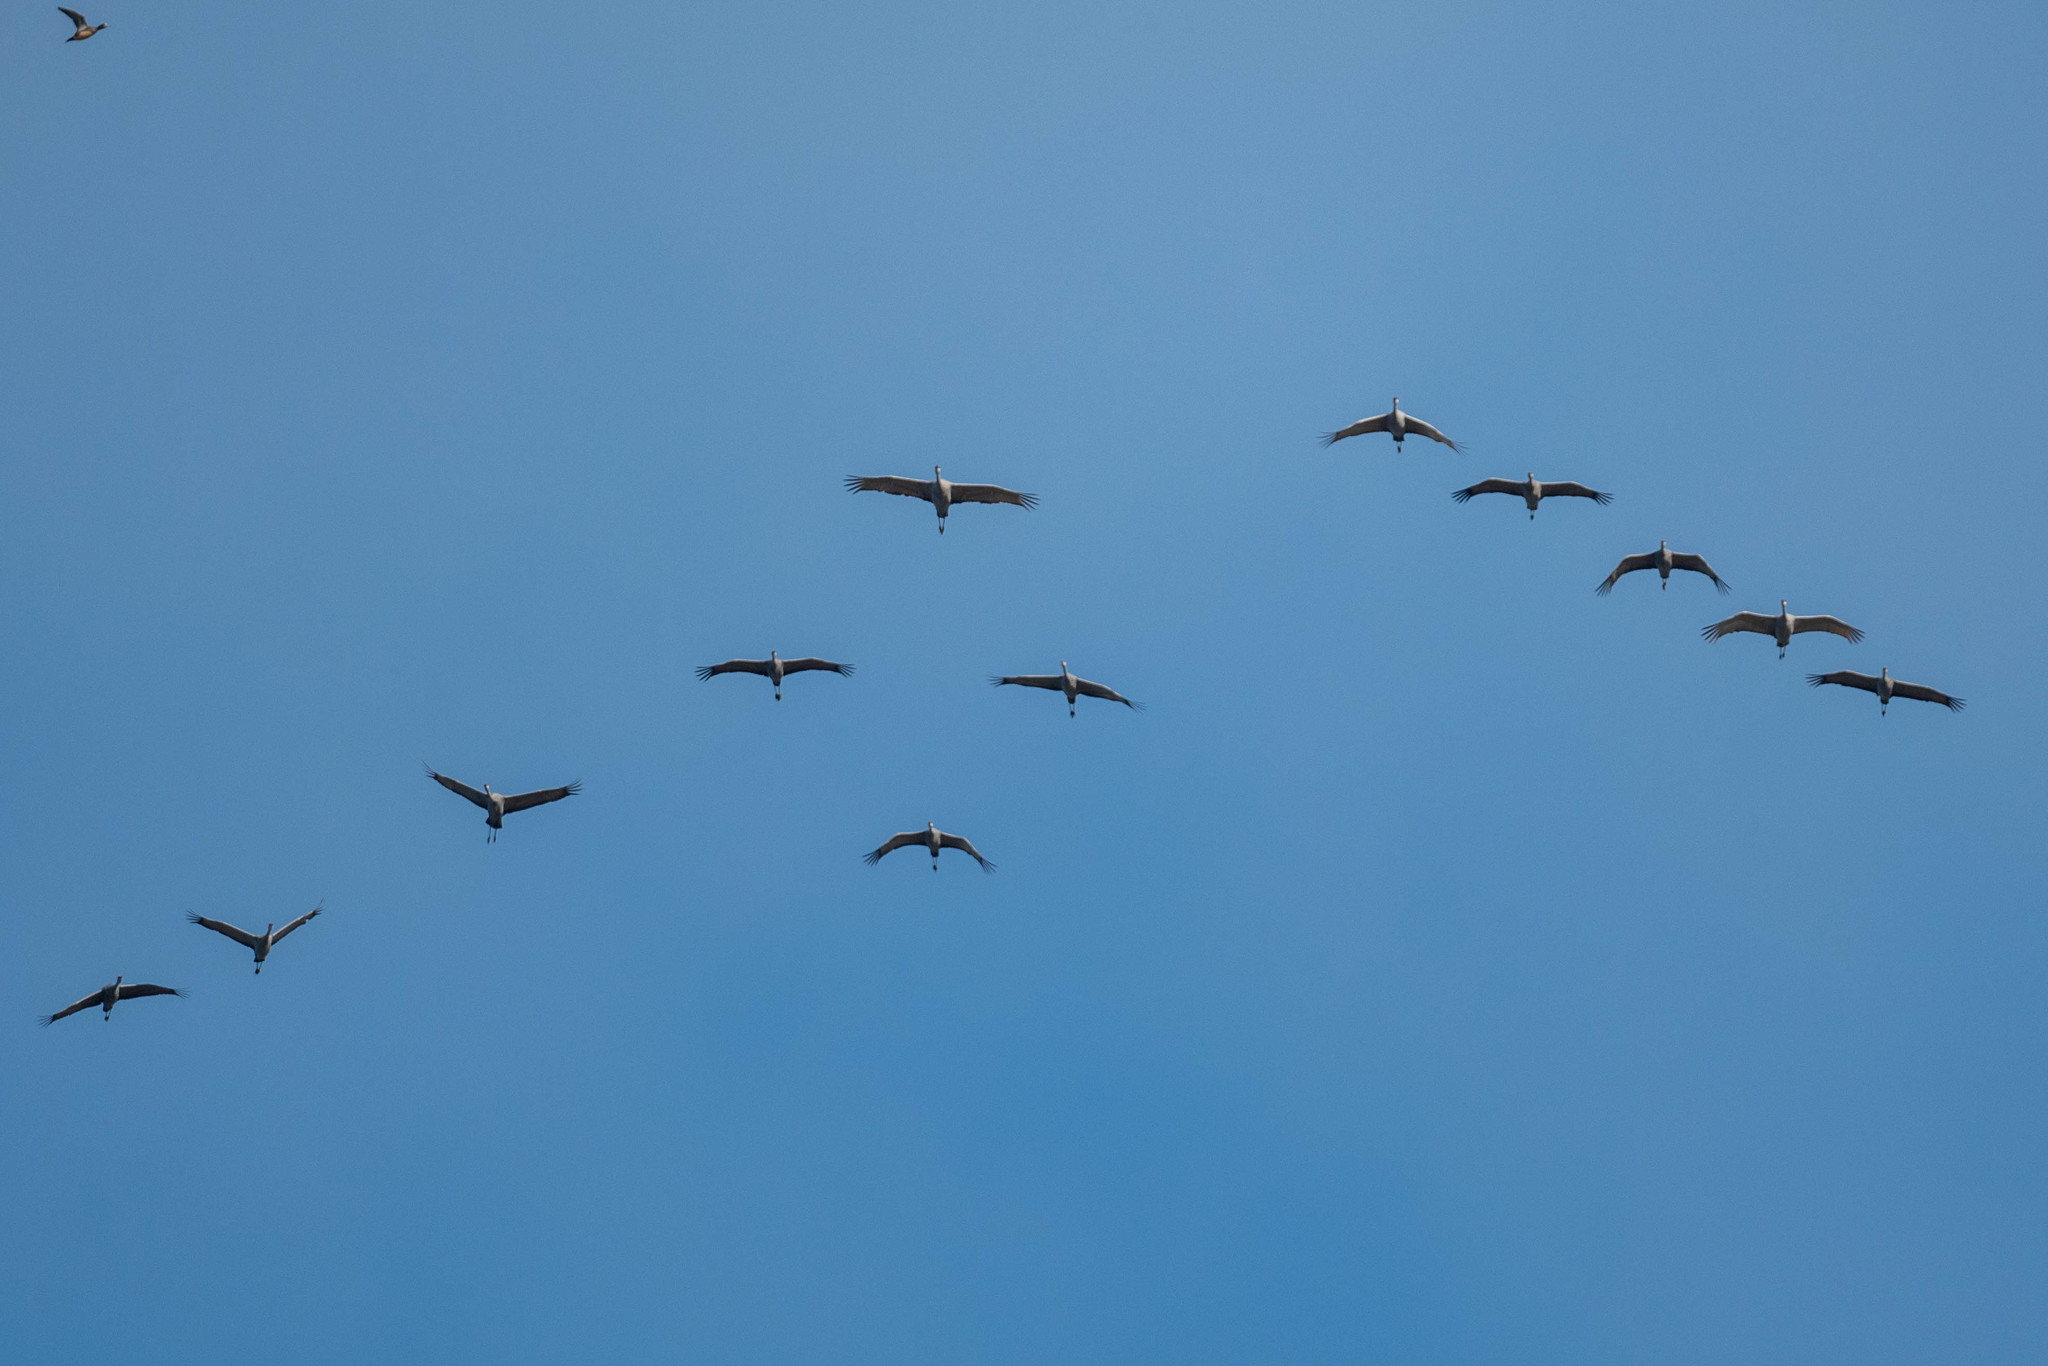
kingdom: Animalia
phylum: Chordata
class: Aves
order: Gruiformes
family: Gruidae
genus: Grus
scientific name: Grus canadensis
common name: Sandhill crane
